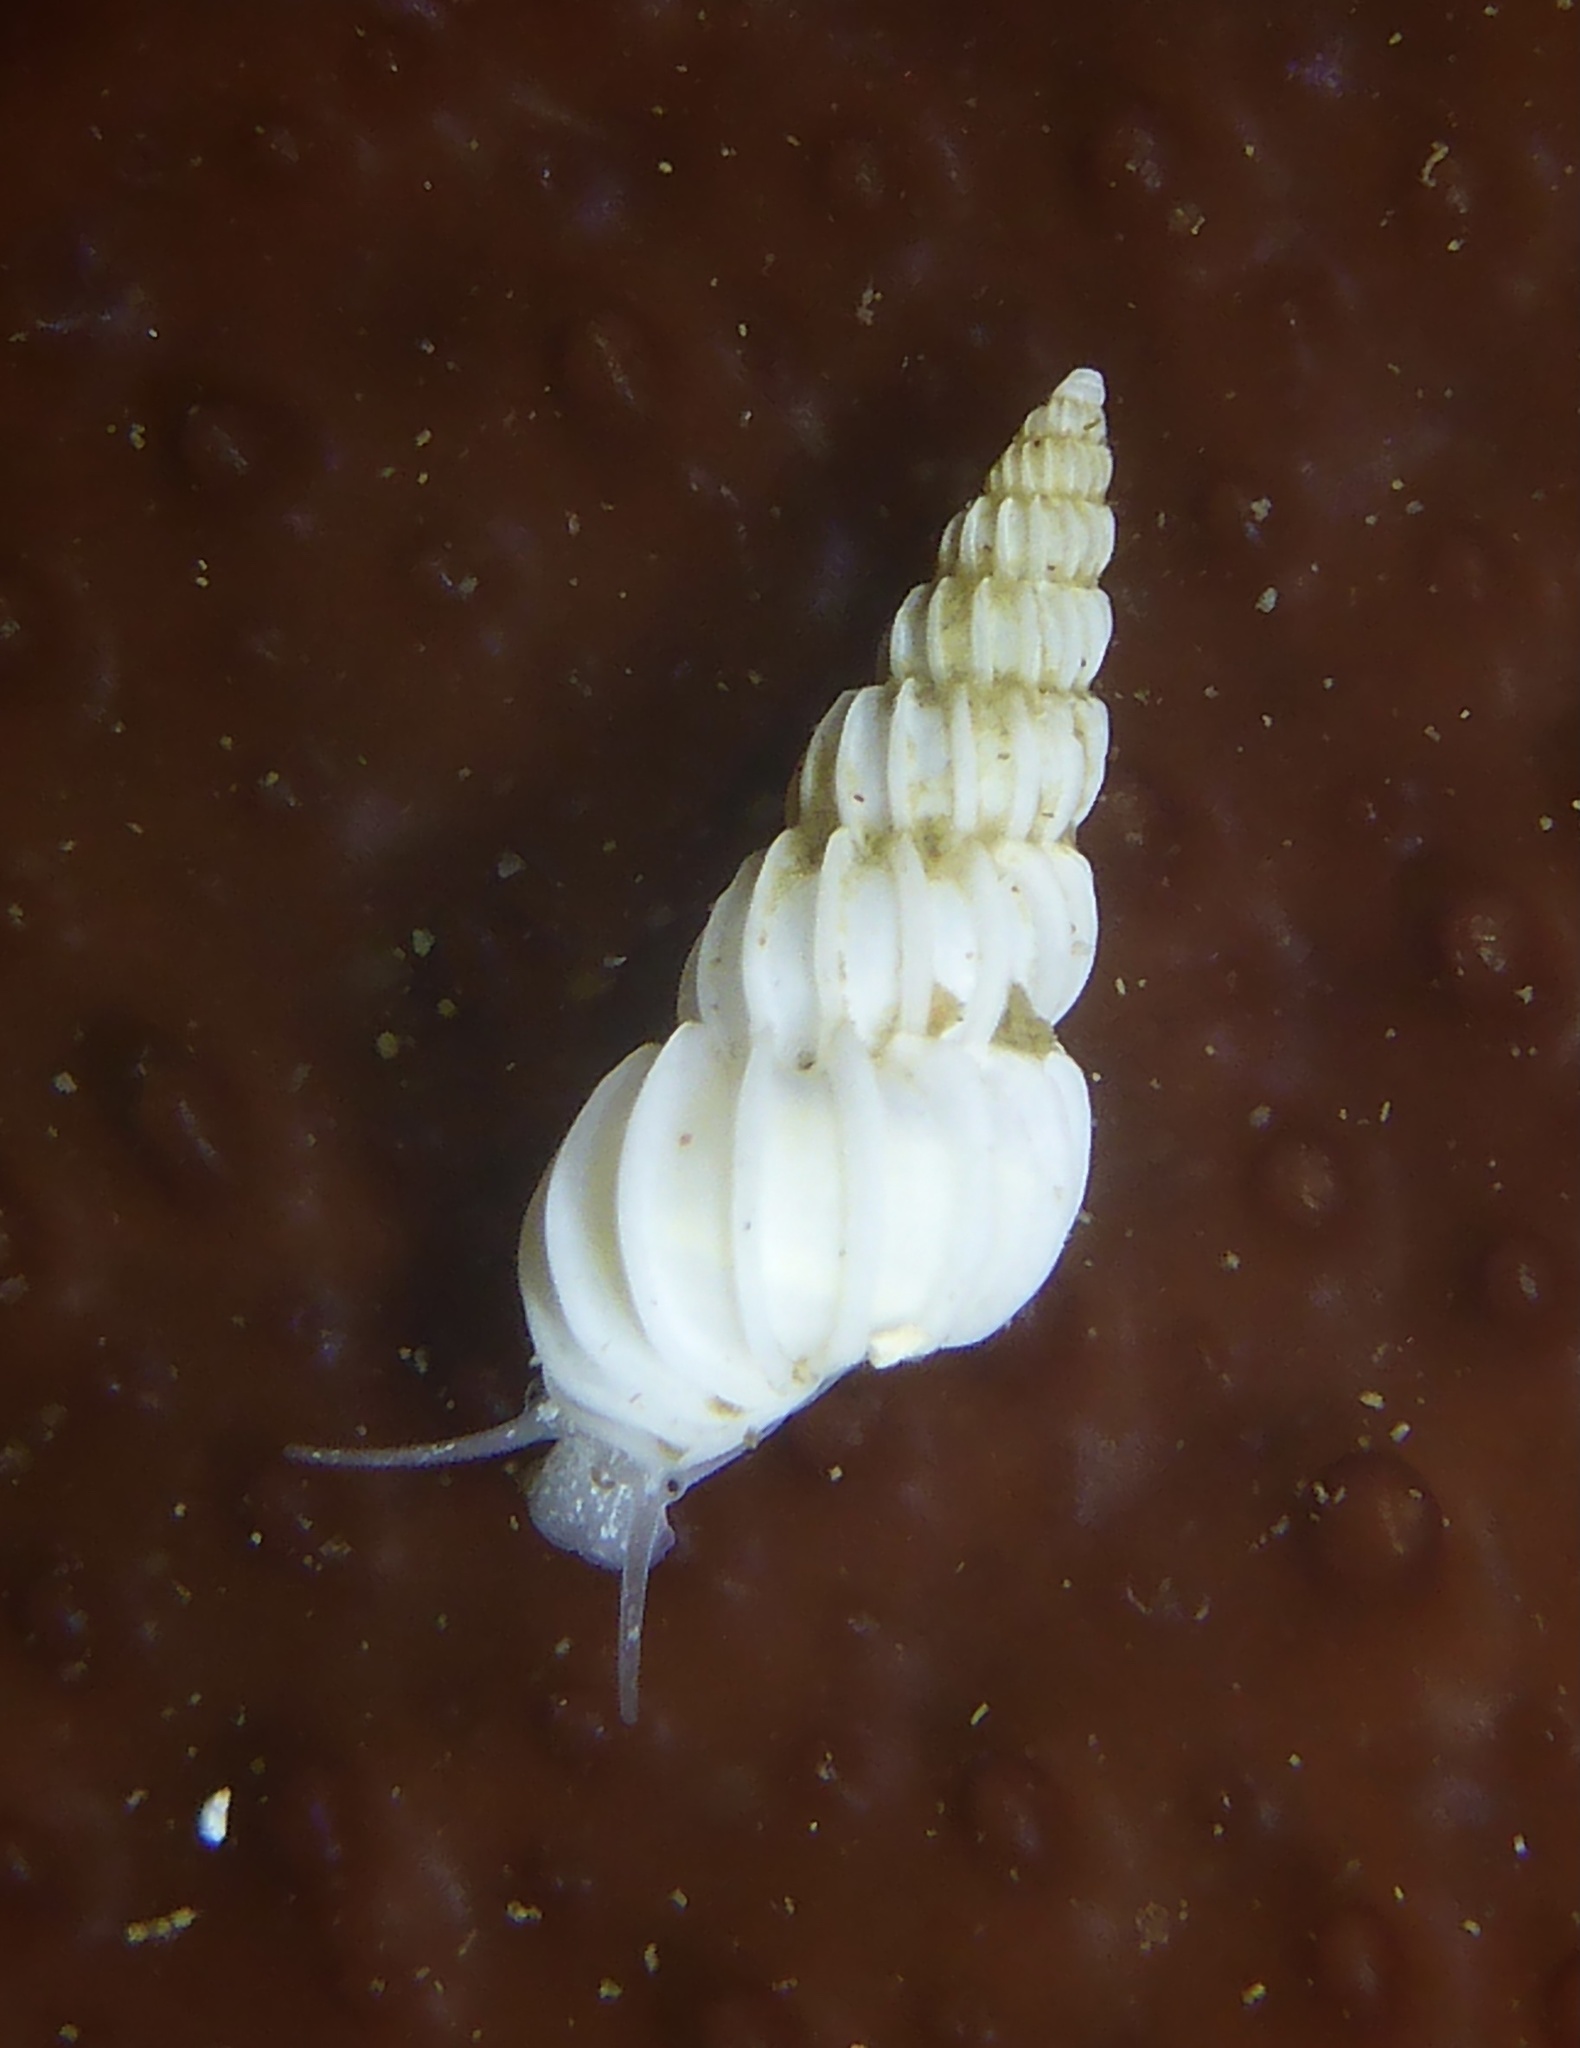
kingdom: Animalia
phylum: Mollusca
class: Gastropoda
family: Epitoniidae
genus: Epitonium
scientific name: Epitonium tinctum
